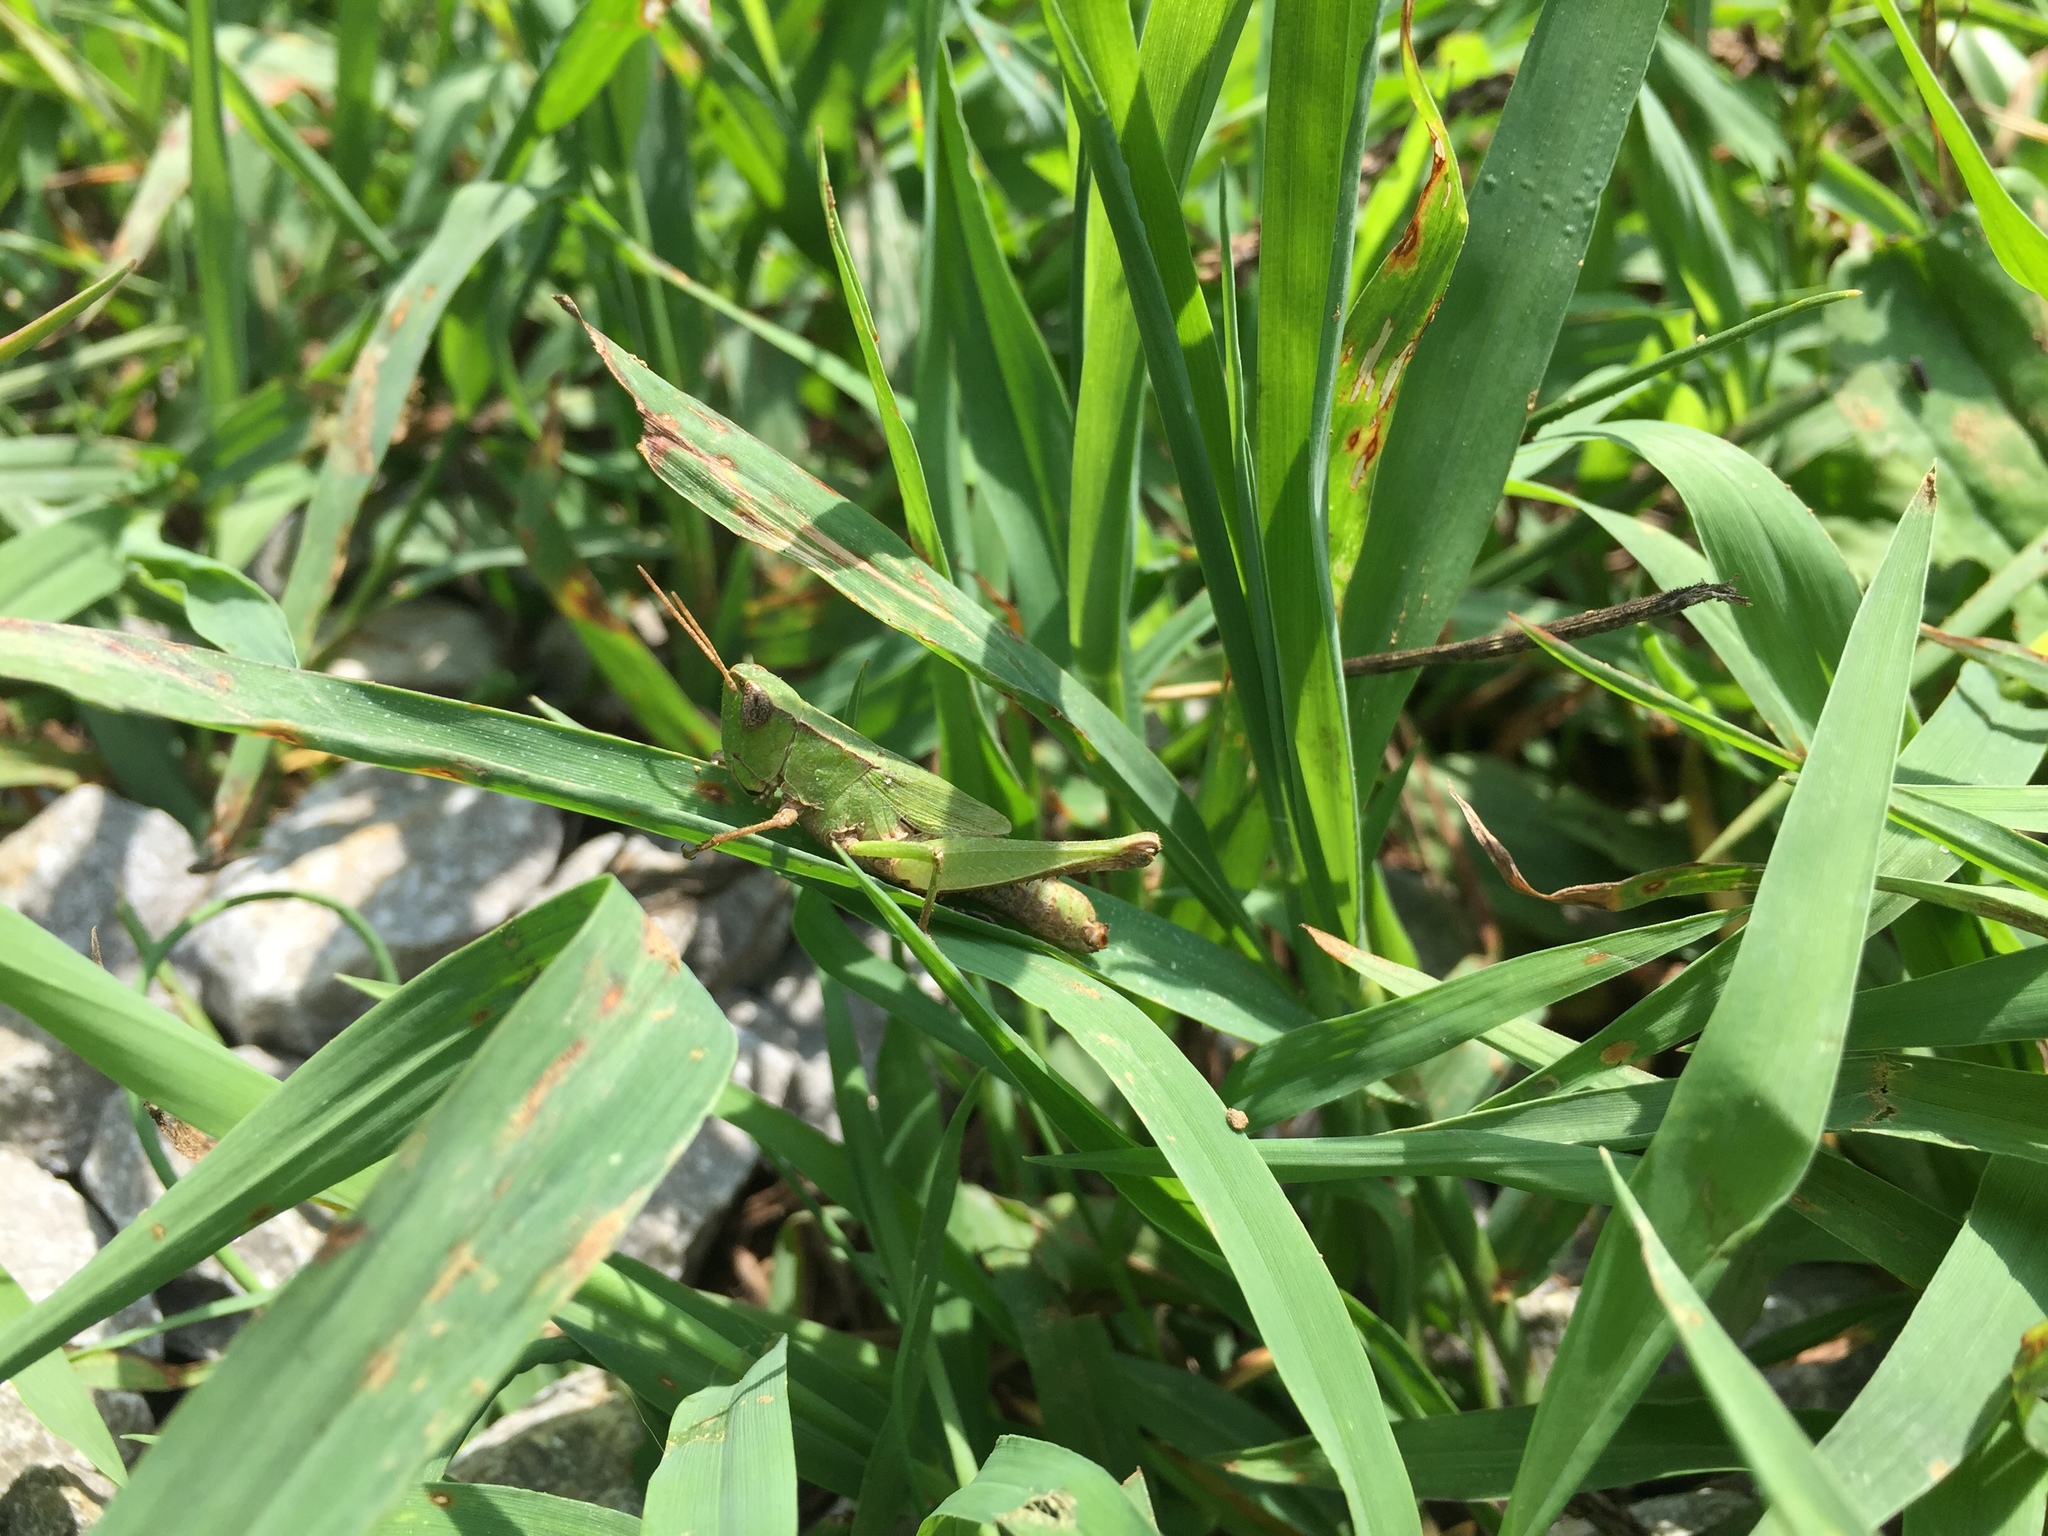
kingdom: Animalia
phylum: Arthropoda
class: Insecta
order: Orthoptera
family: Acrididae
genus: Dichromorpha
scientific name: Dichromorpha viridis
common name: Short-winged green grasshopper
